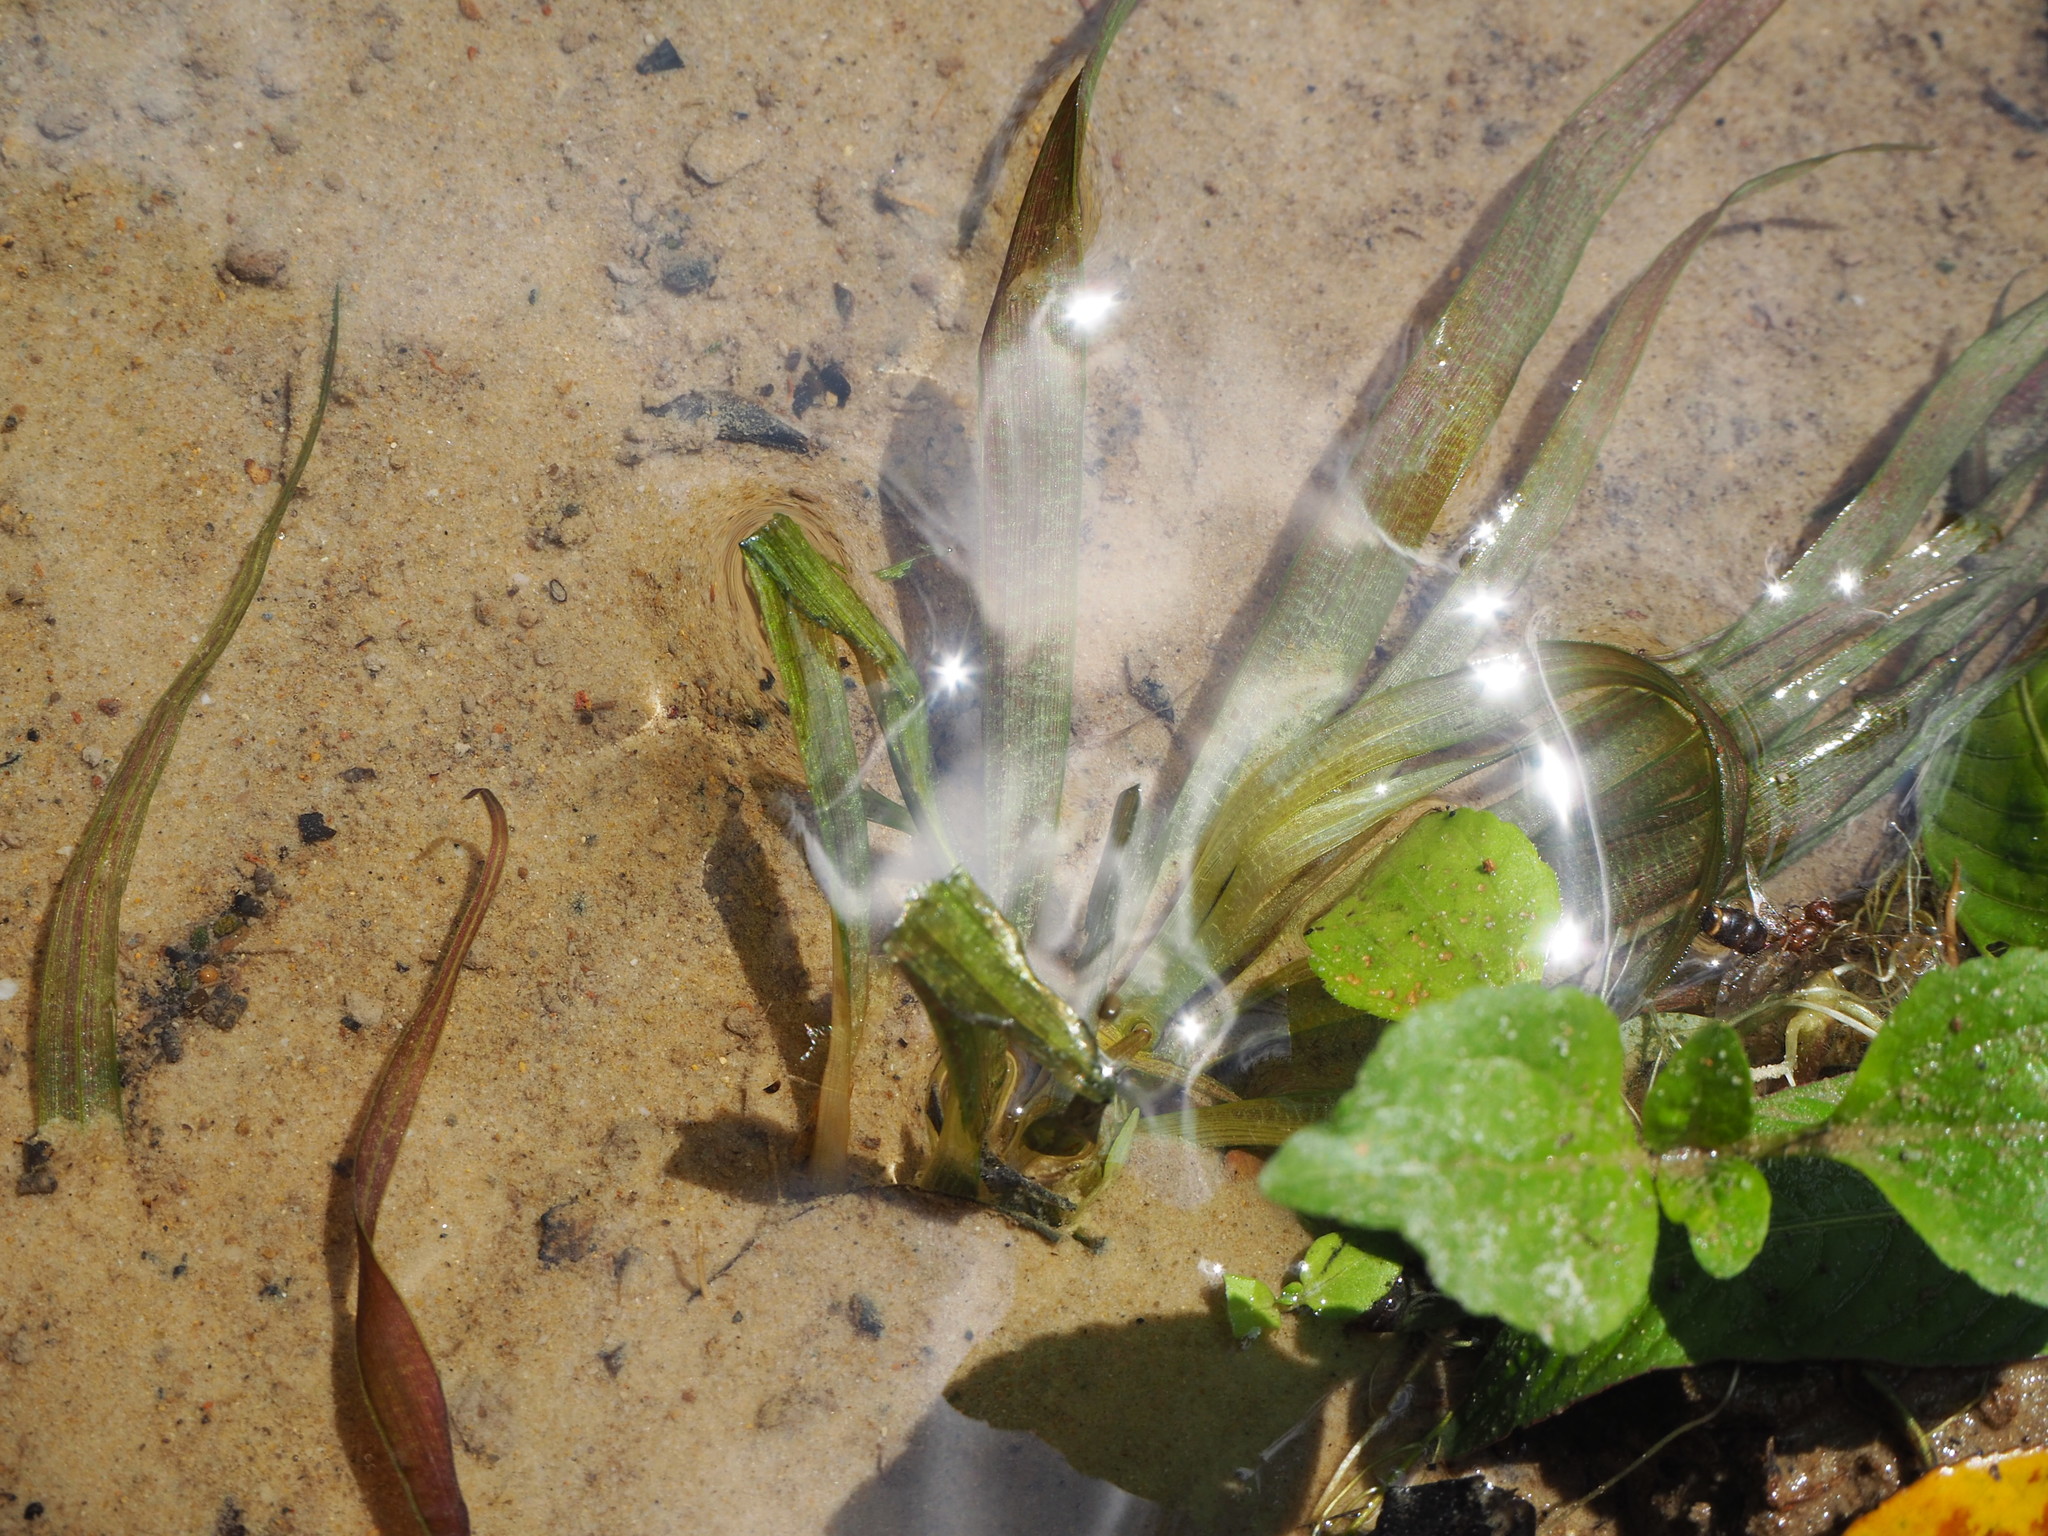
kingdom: Plantae
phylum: Tracheophyta
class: Liliopsida
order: Alismatales
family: Hydrocharitaceae
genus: Blyxa
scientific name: Blyxa aubertii
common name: Roundfruit blyxa
